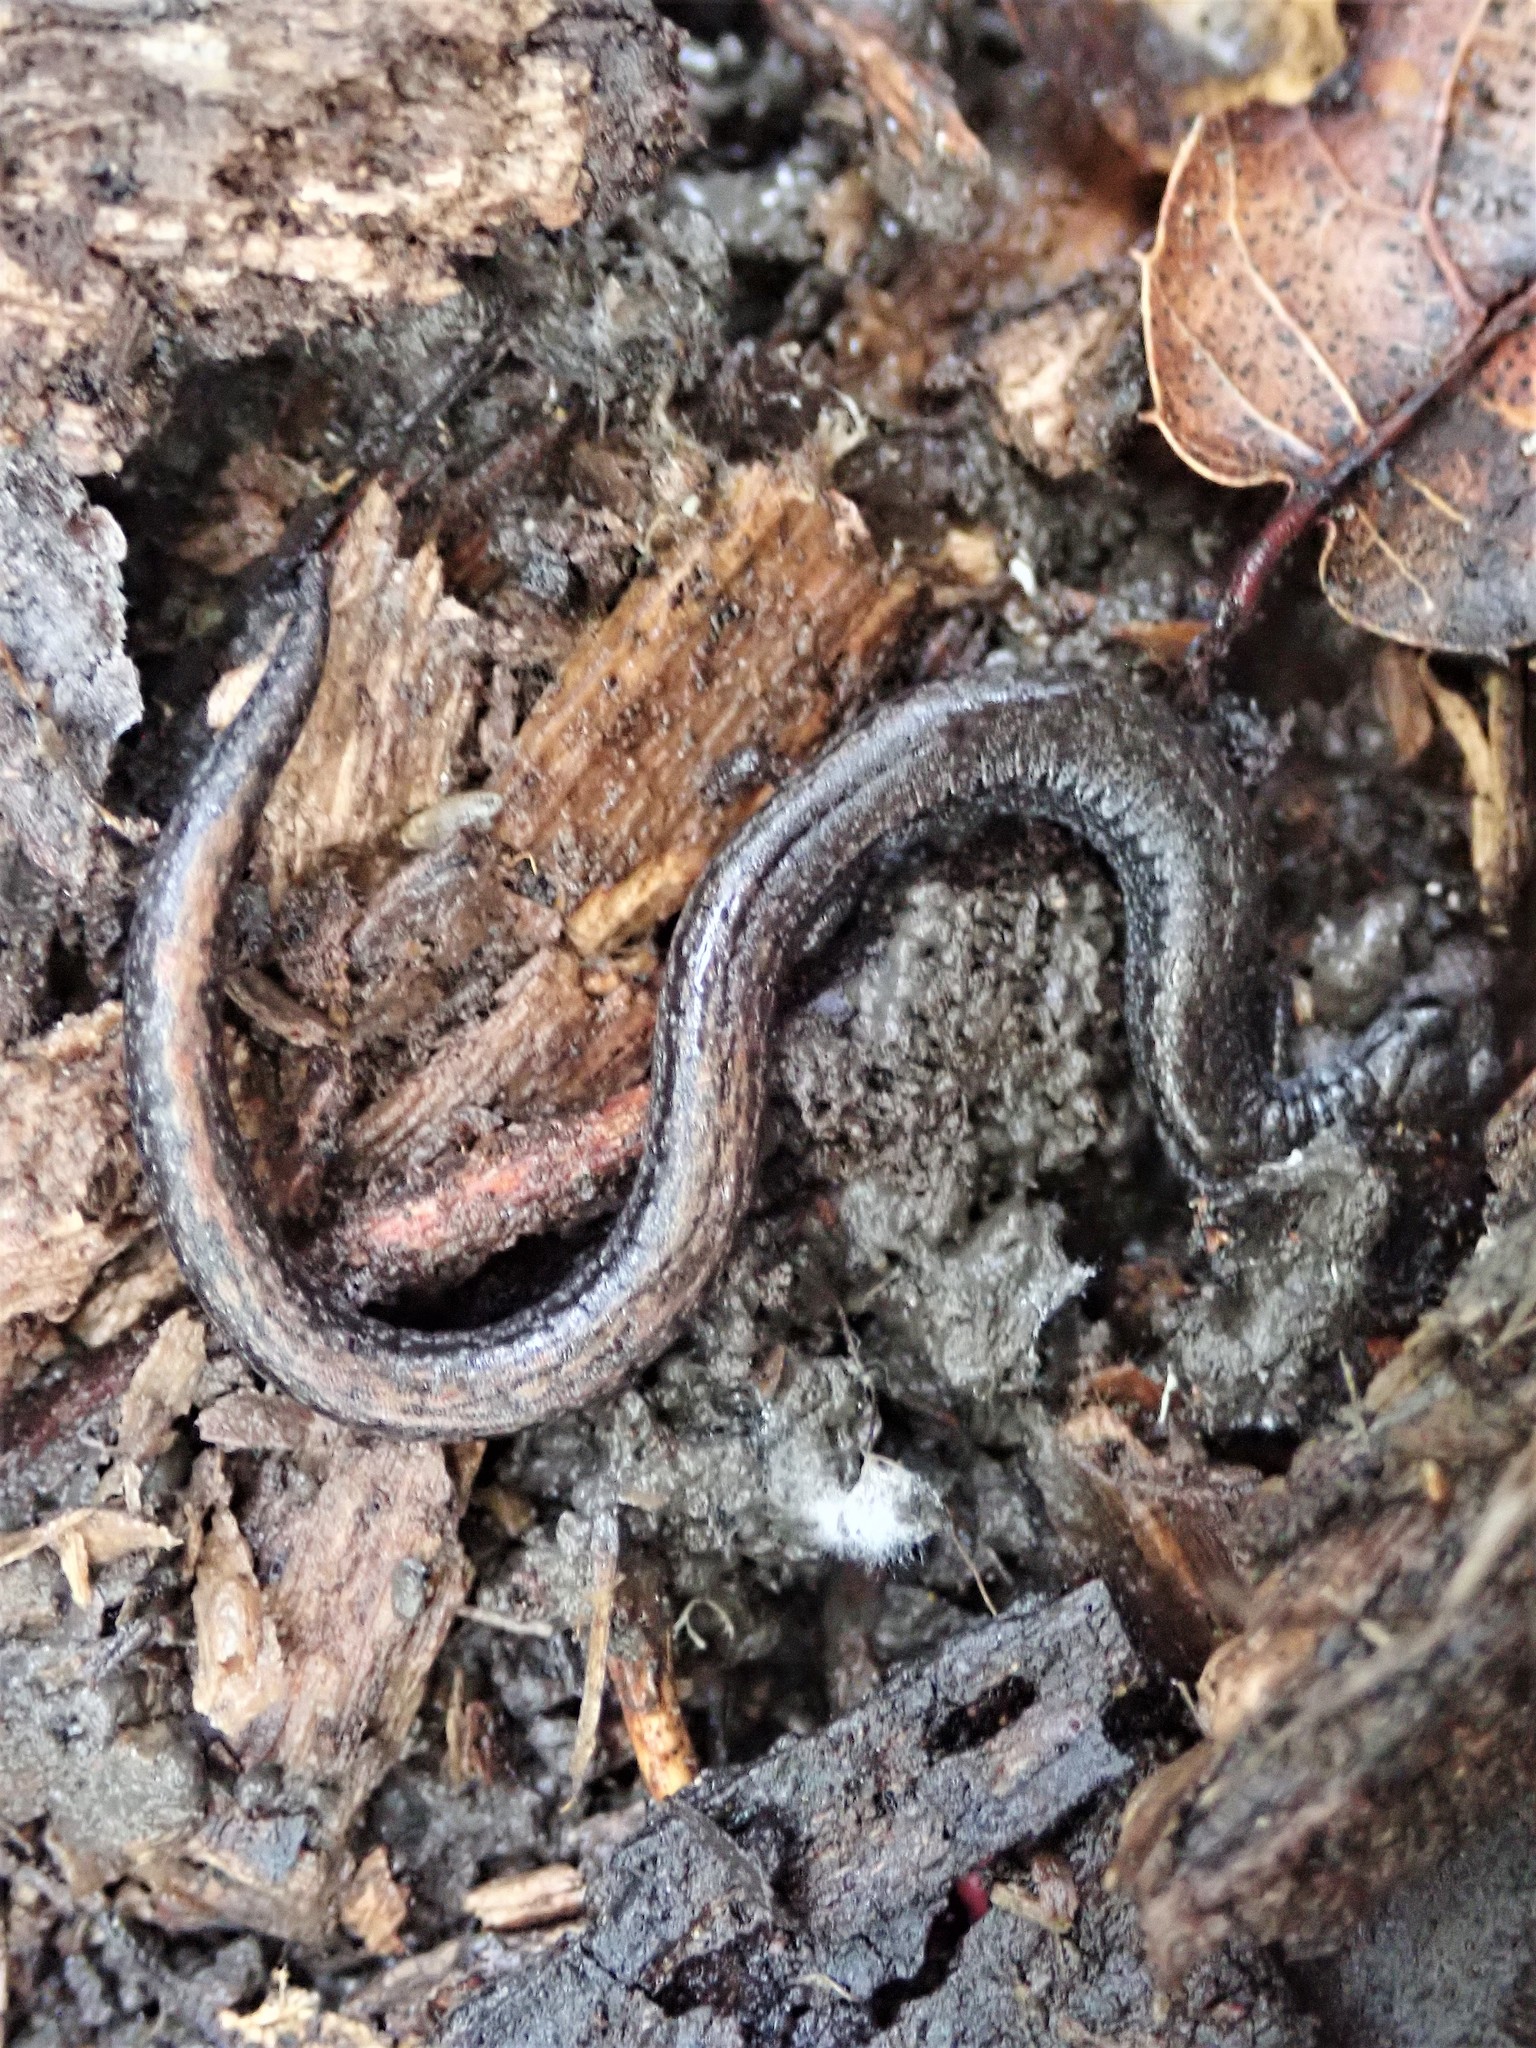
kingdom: Animalia
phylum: Chordata
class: Amphibia
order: Caudata
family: Plethodontidae
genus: Batrachoseps
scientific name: Batrachoseps attenuatus
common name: California slender salamander
